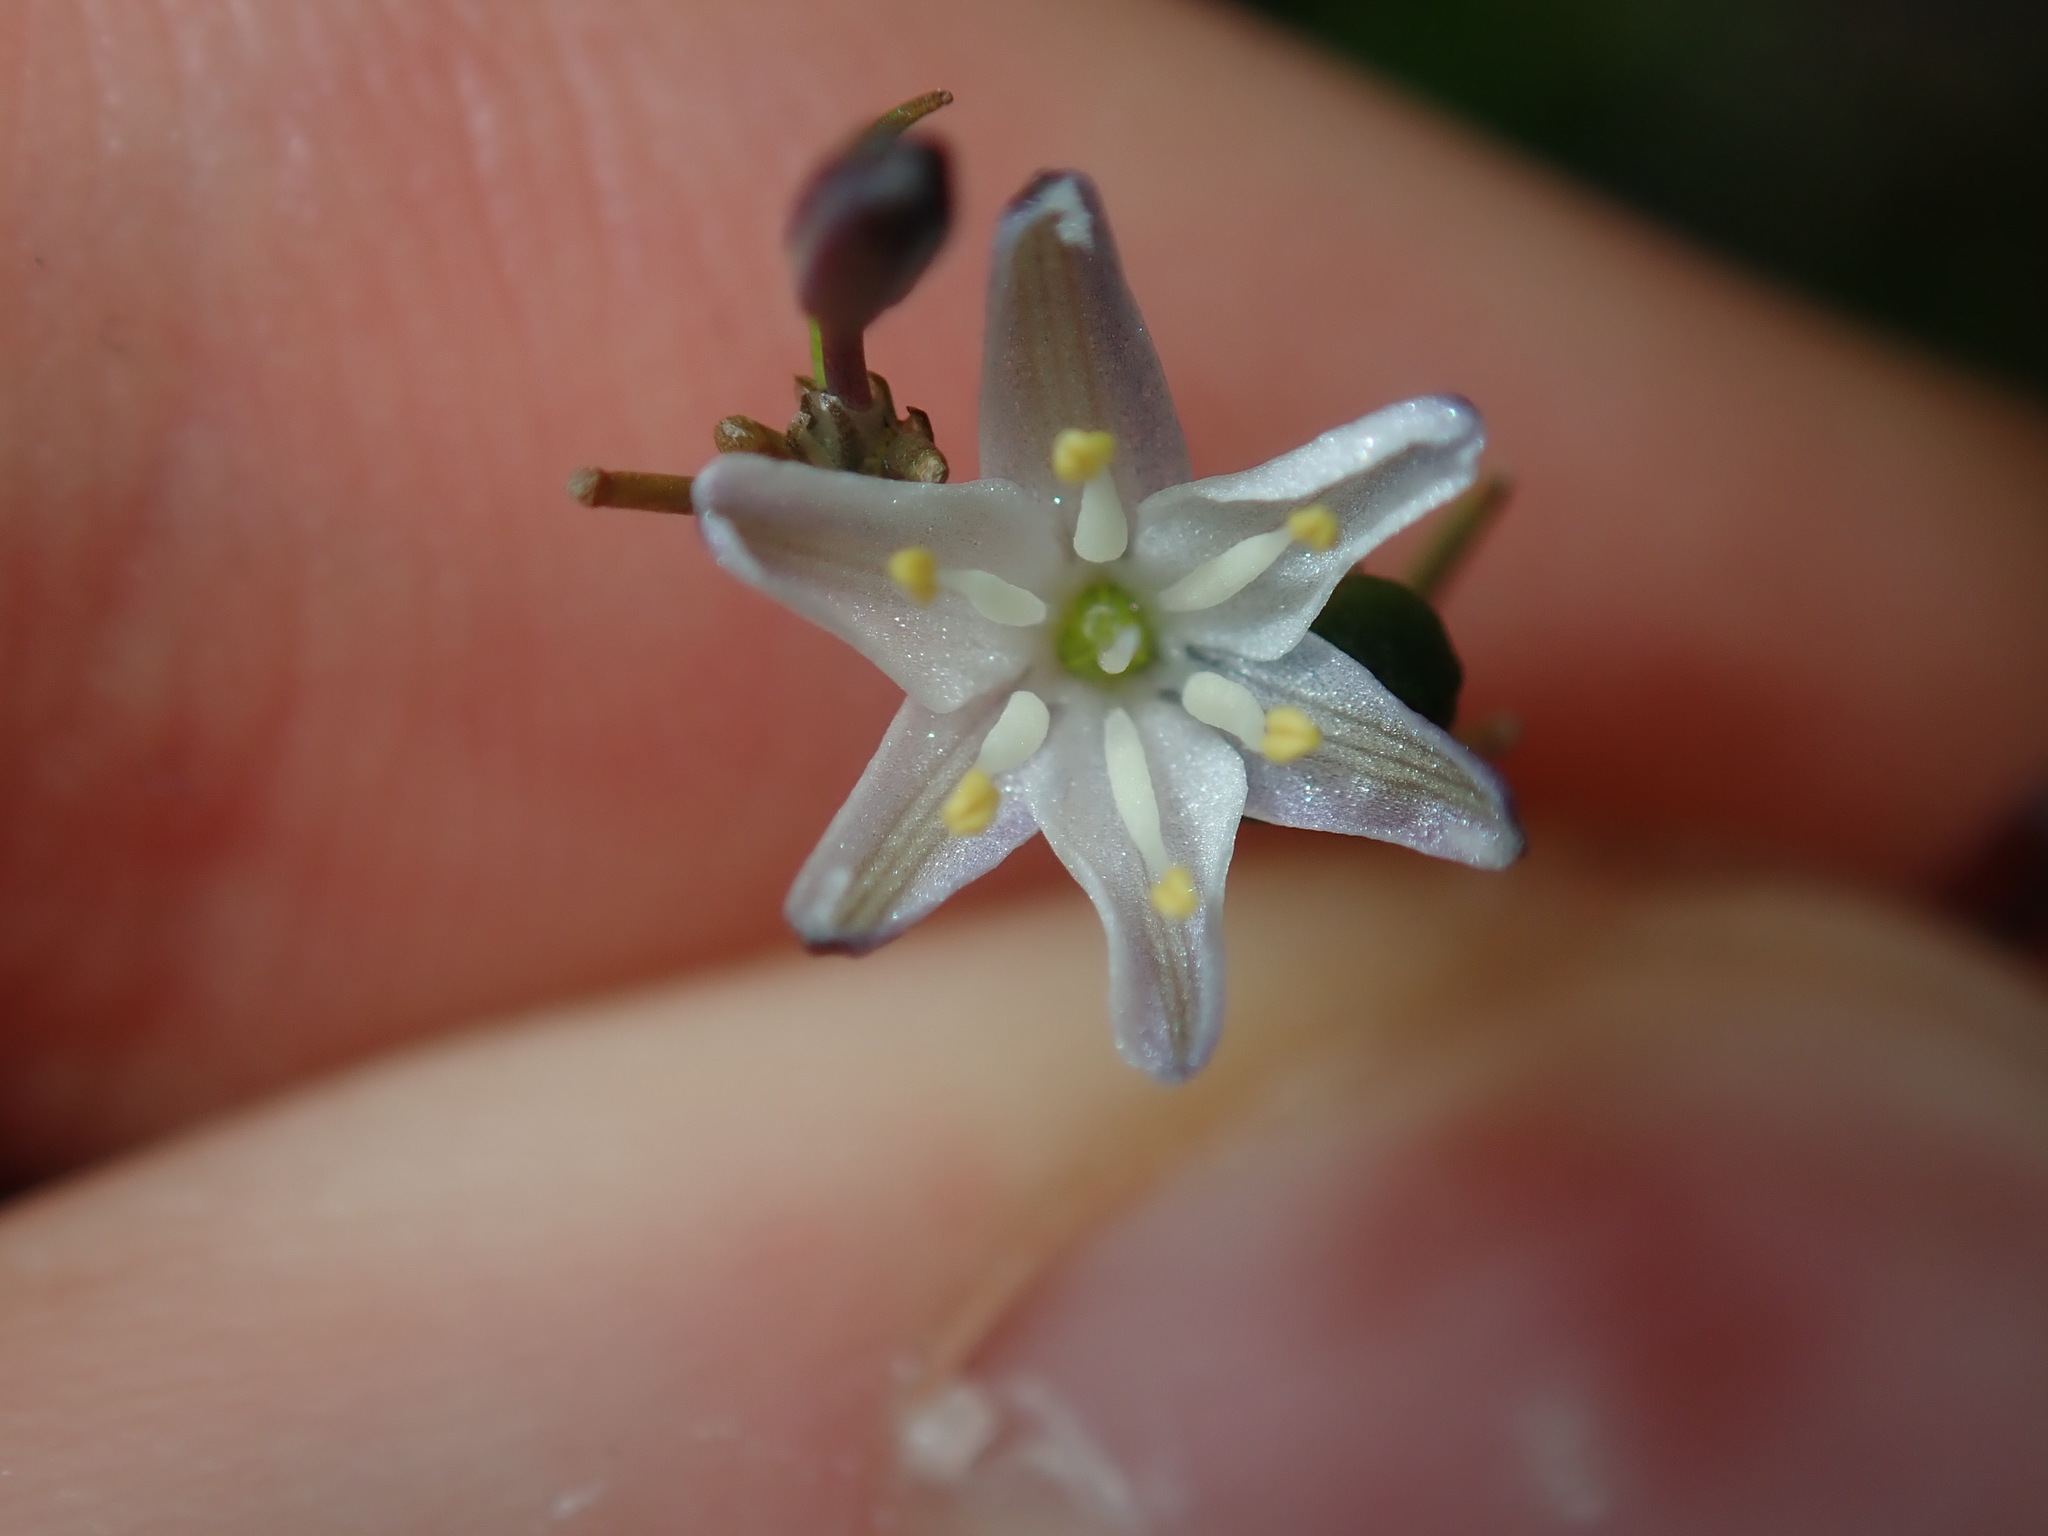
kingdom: Plantae
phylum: Tracheophyta
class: Liliopsida
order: Asparagales
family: Asphodelaceae
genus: Caesia
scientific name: Caesia parviflora
